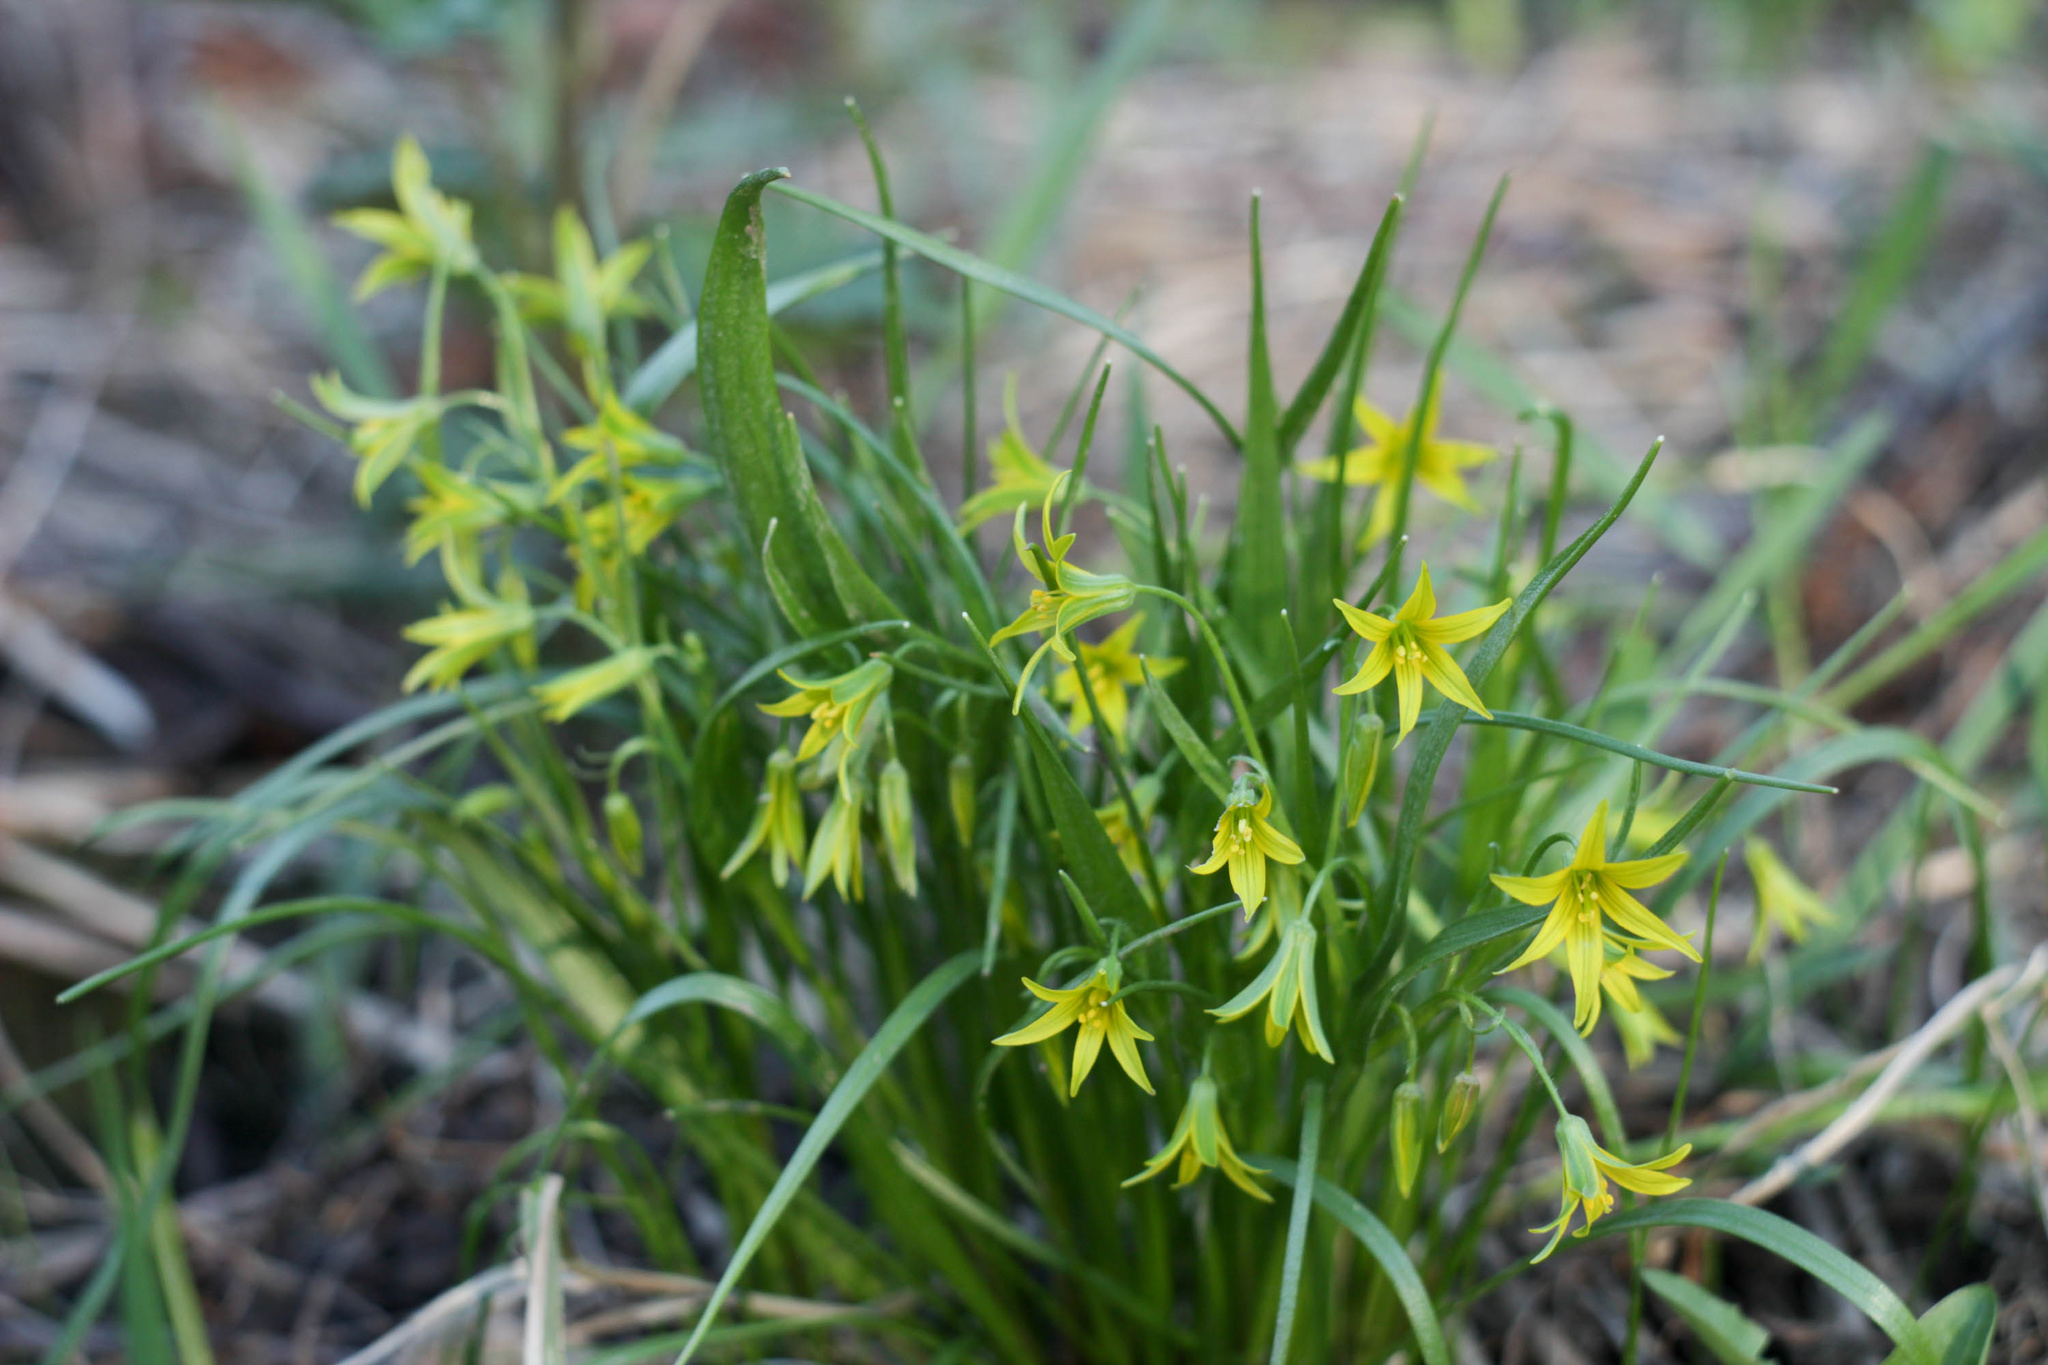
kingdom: Plantae
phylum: Tracheophyta
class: Liliopsida
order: Liliales
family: Liliaceae
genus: Gagea
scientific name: Gagea minima
